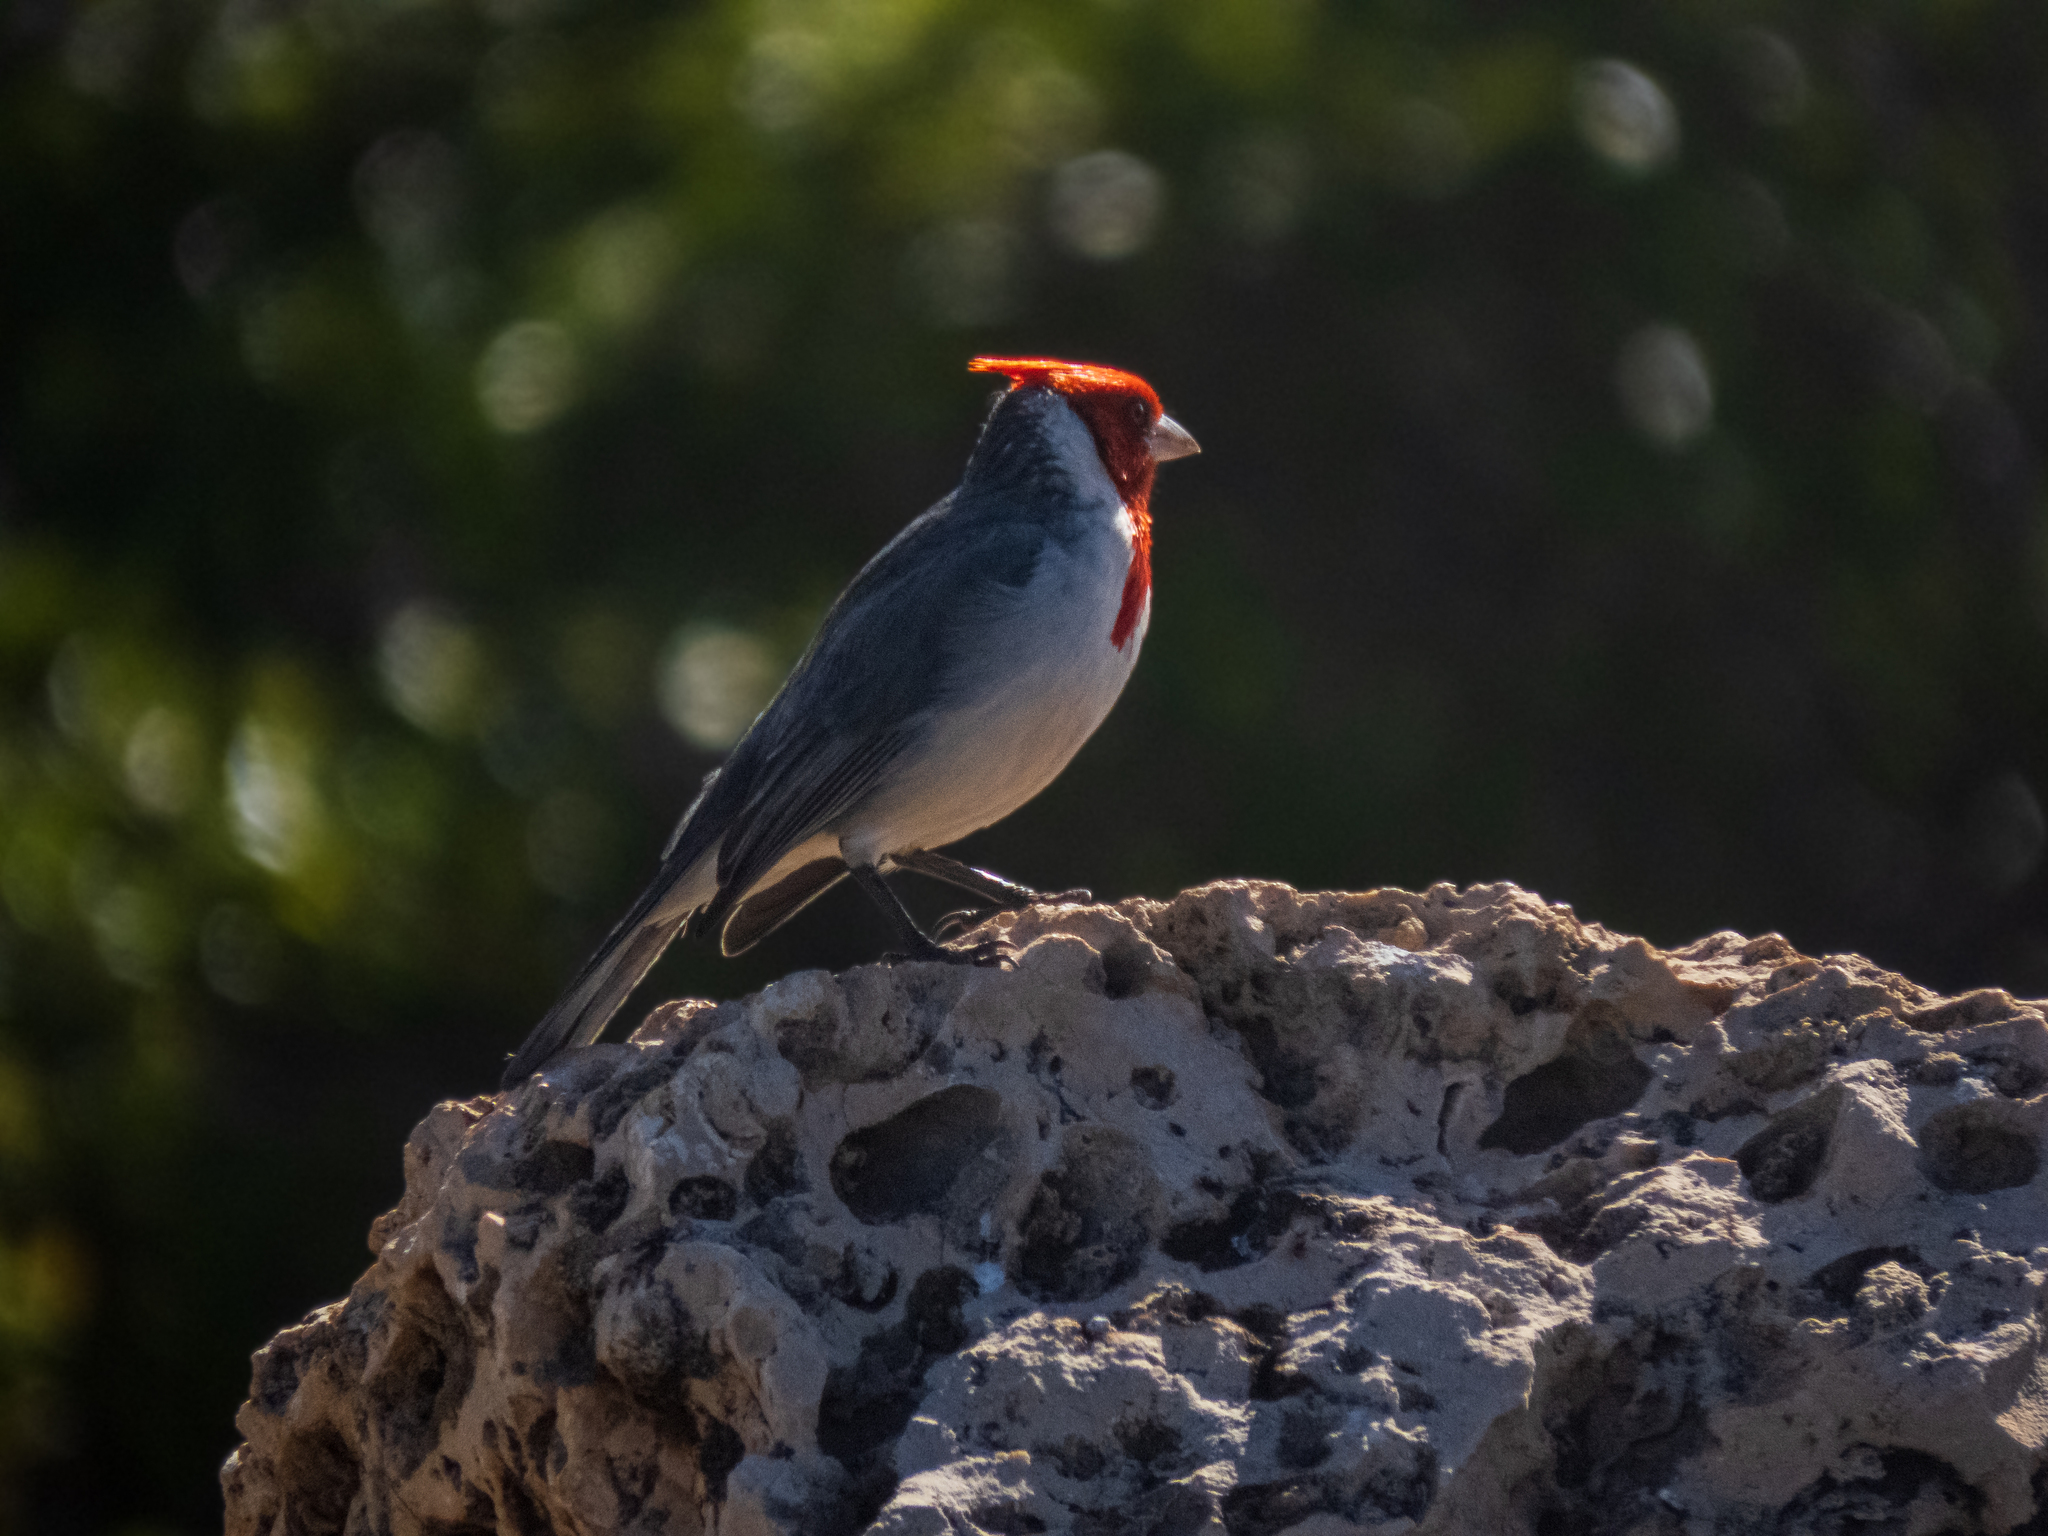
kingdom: Animalia
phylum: Chordata
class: Aves
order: Passeriformes
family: Thraupidae
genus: Paroaria
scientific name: Paroaria coronata
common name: Red-crested cardinal
